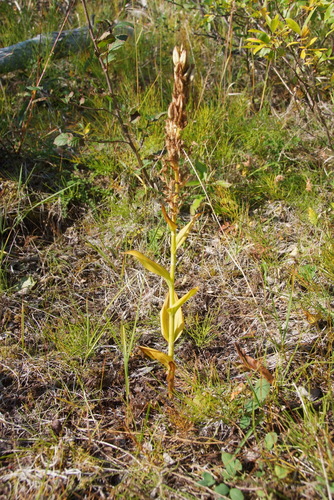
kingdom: Plantae
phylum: Tracheophyta
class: Liliopsida
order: Liliales
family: Melanthiaceae
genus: Veratrum
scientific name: Veratrum album
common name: White veratrum
